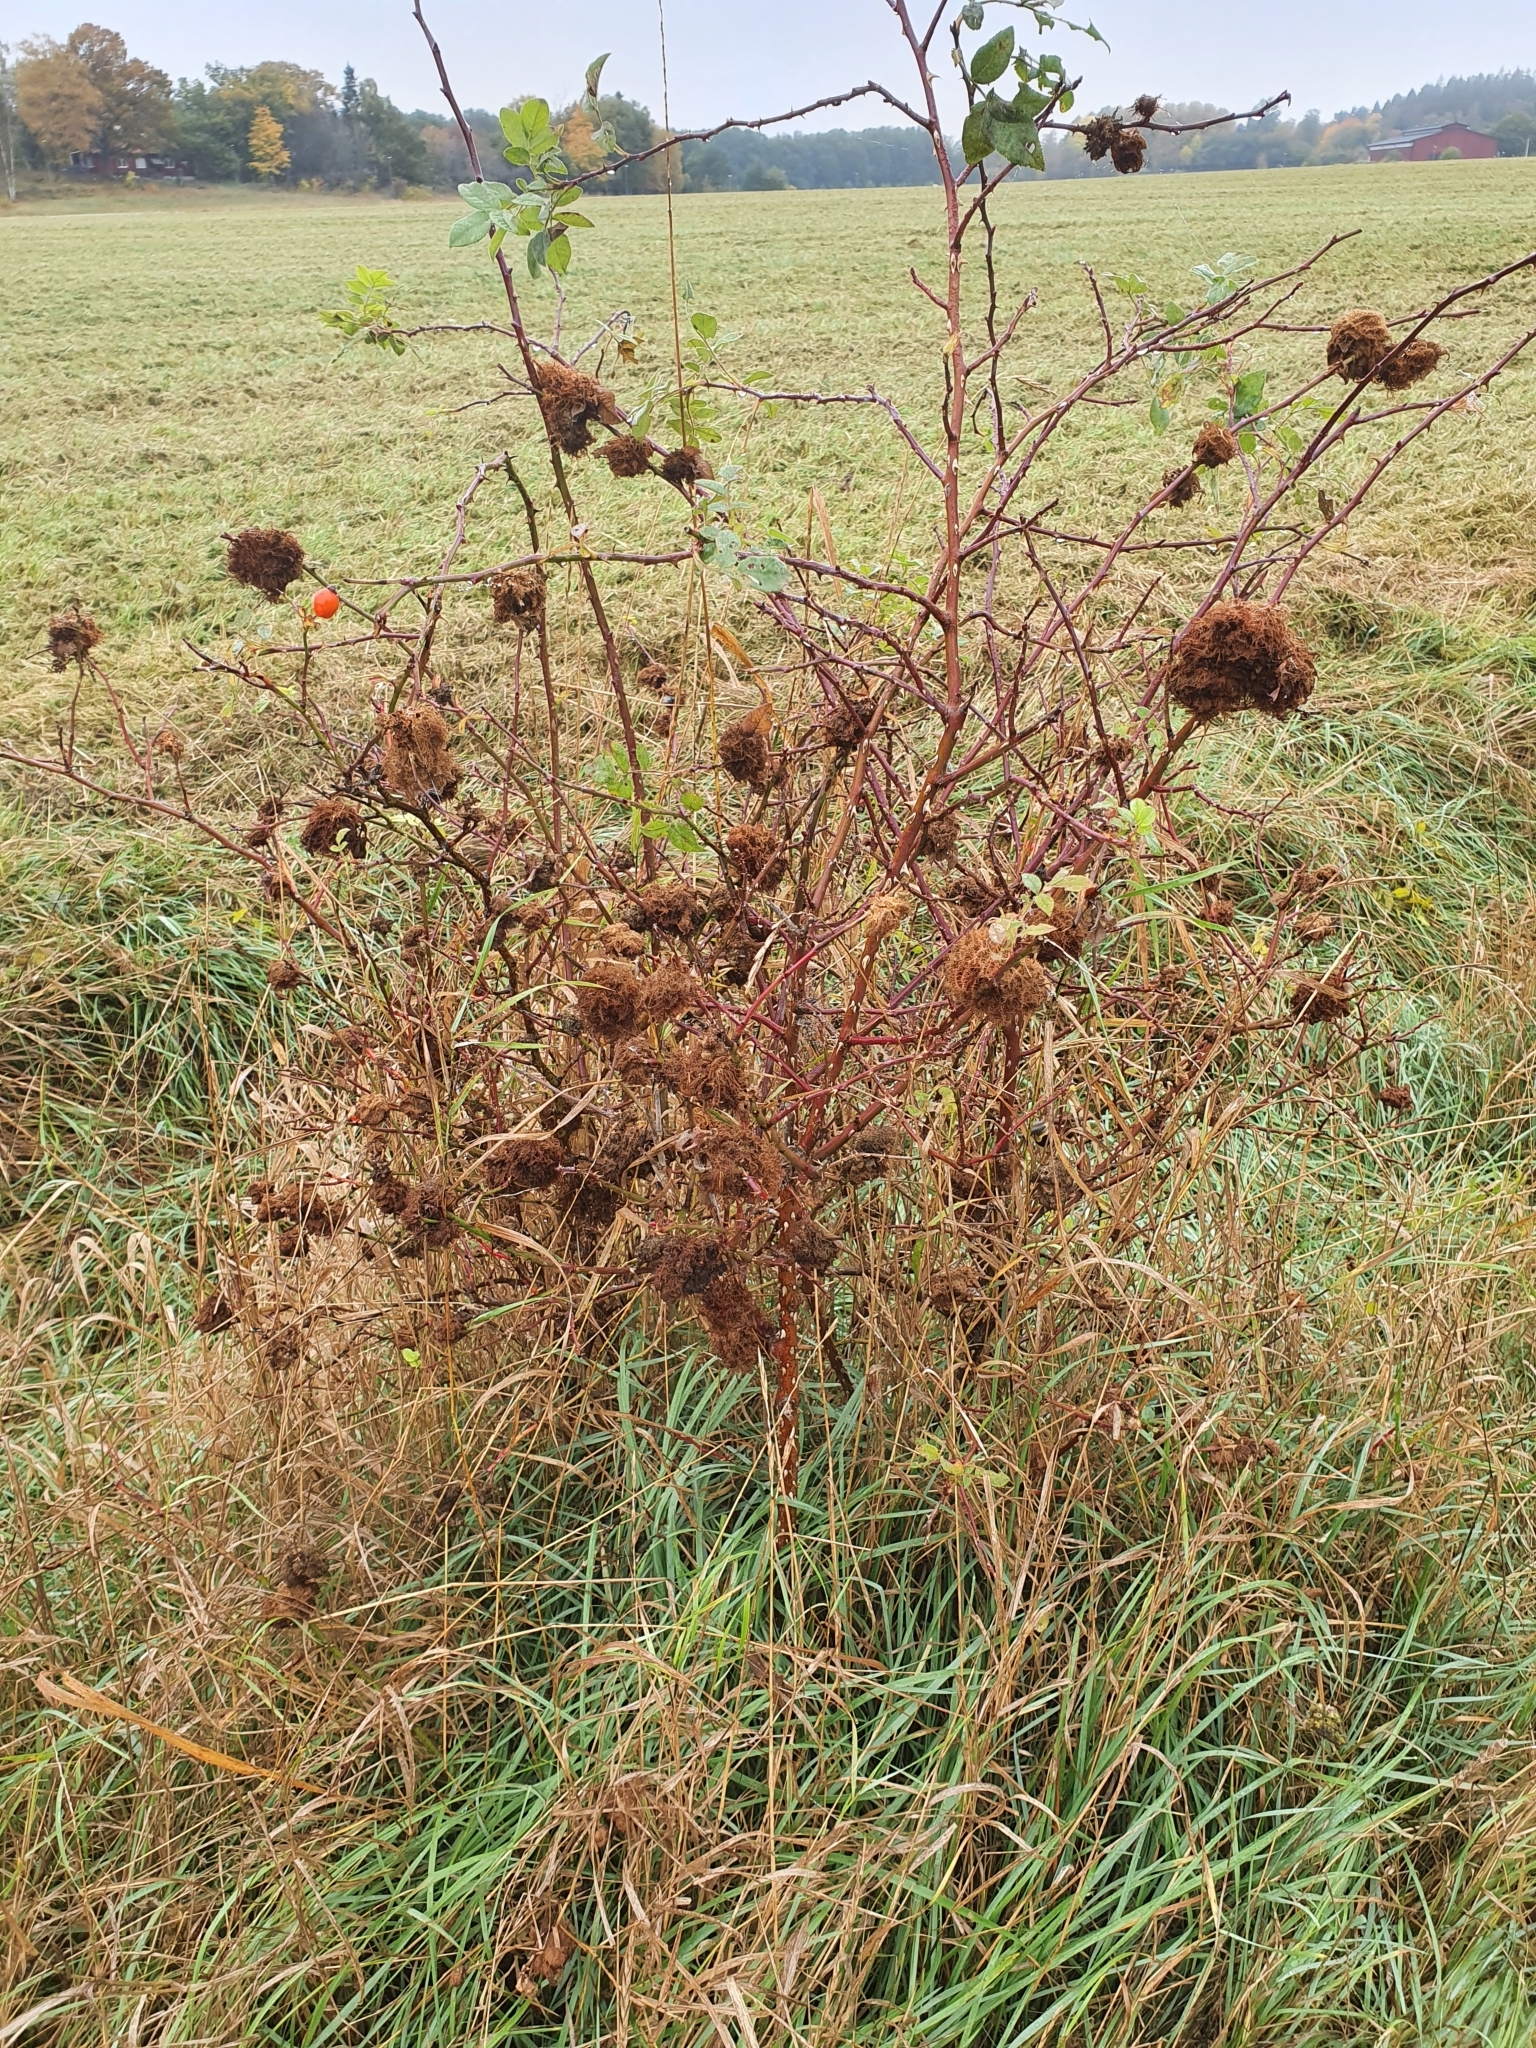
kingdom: Animalia
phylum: Arthropoda
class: Insecta
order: Hymenoptera
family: Cynipidae
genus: Diplolepis
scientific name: Diplolepis rosae
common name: Bedeguar gall
